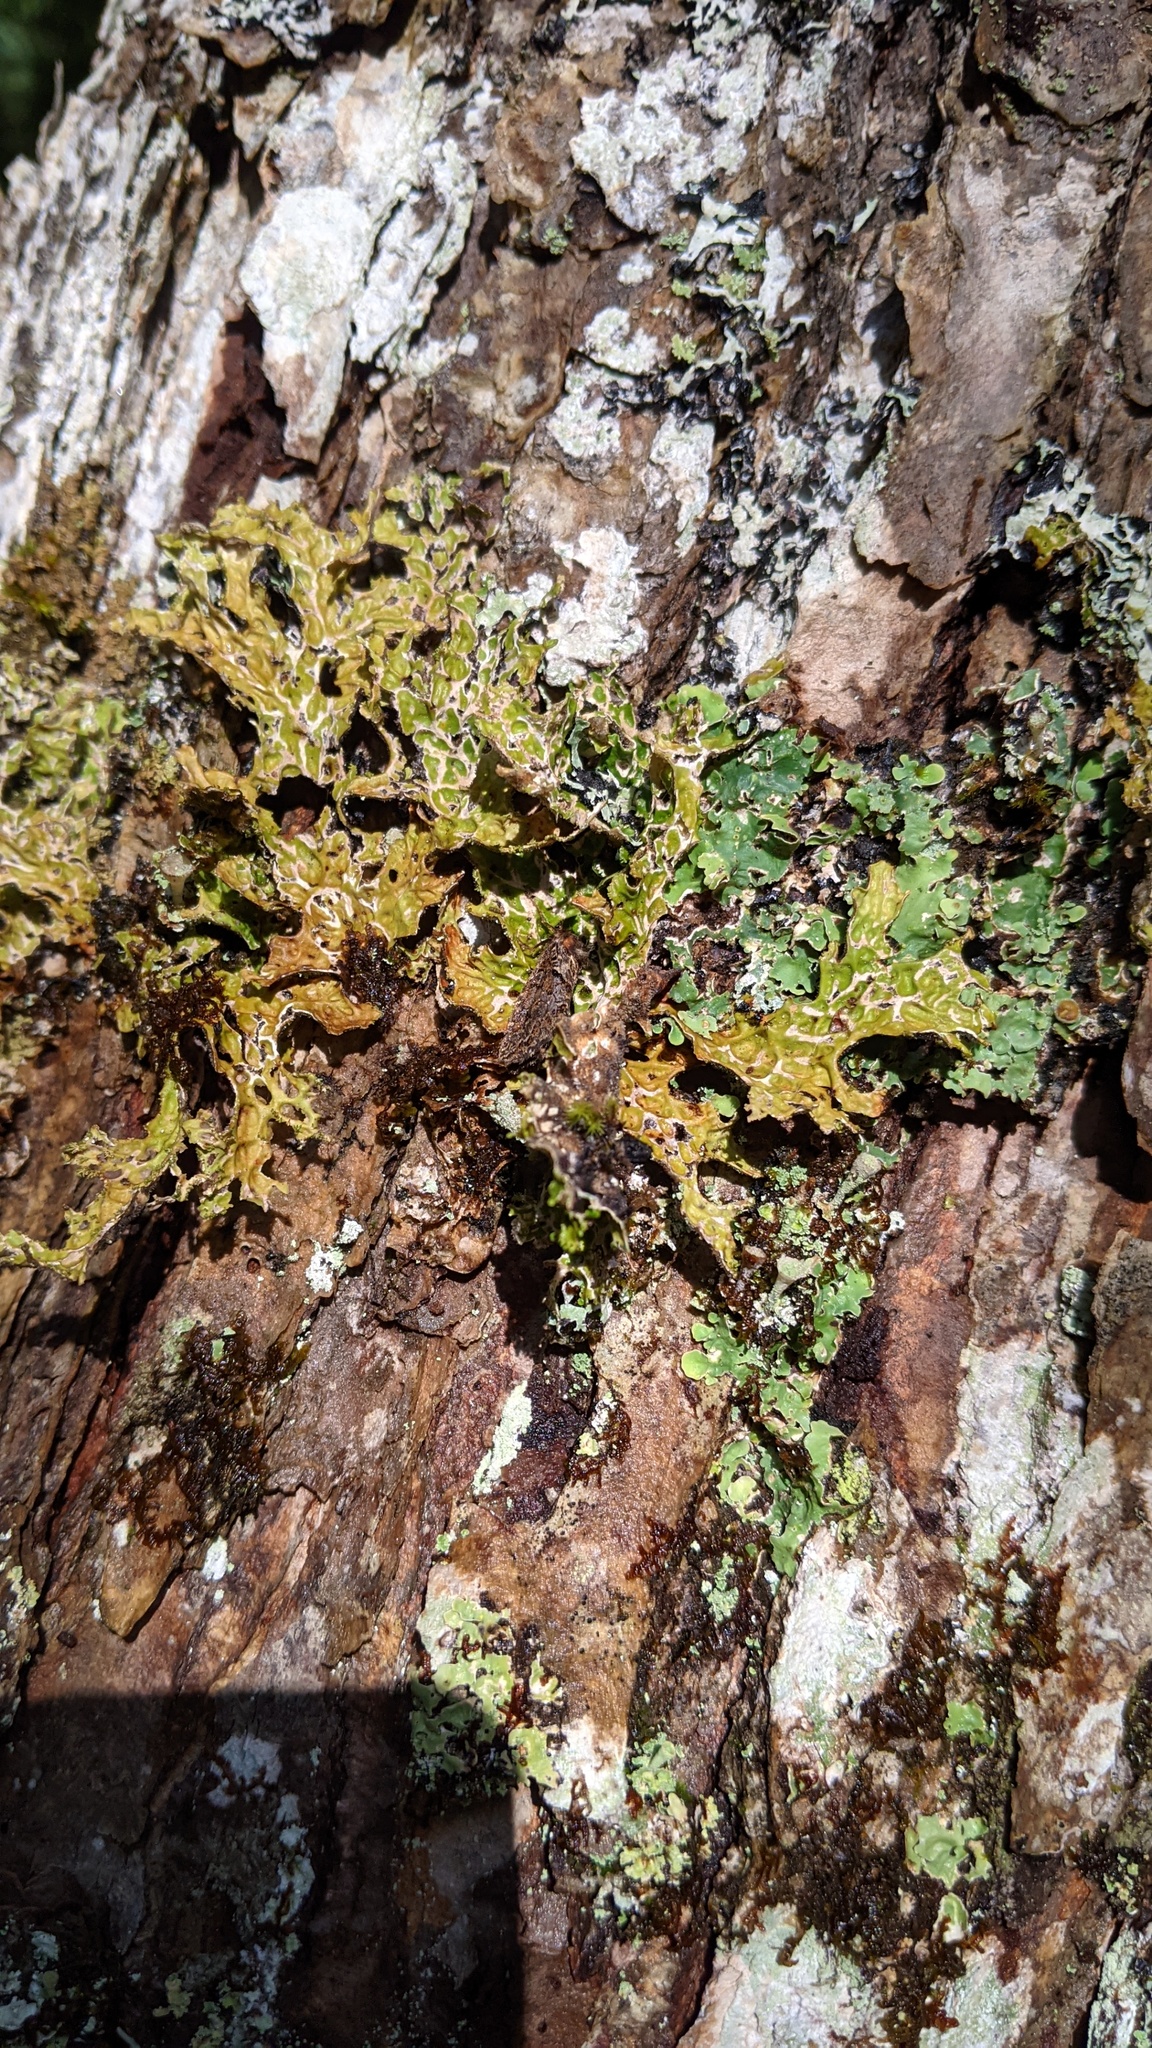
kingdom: Fungi
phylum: Ascomycota
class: Lecanoromycetes
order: Peltigerales
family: Lobariaceae
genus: Lobaria
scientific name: Lobaria pulmonaria
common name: Lungwort
